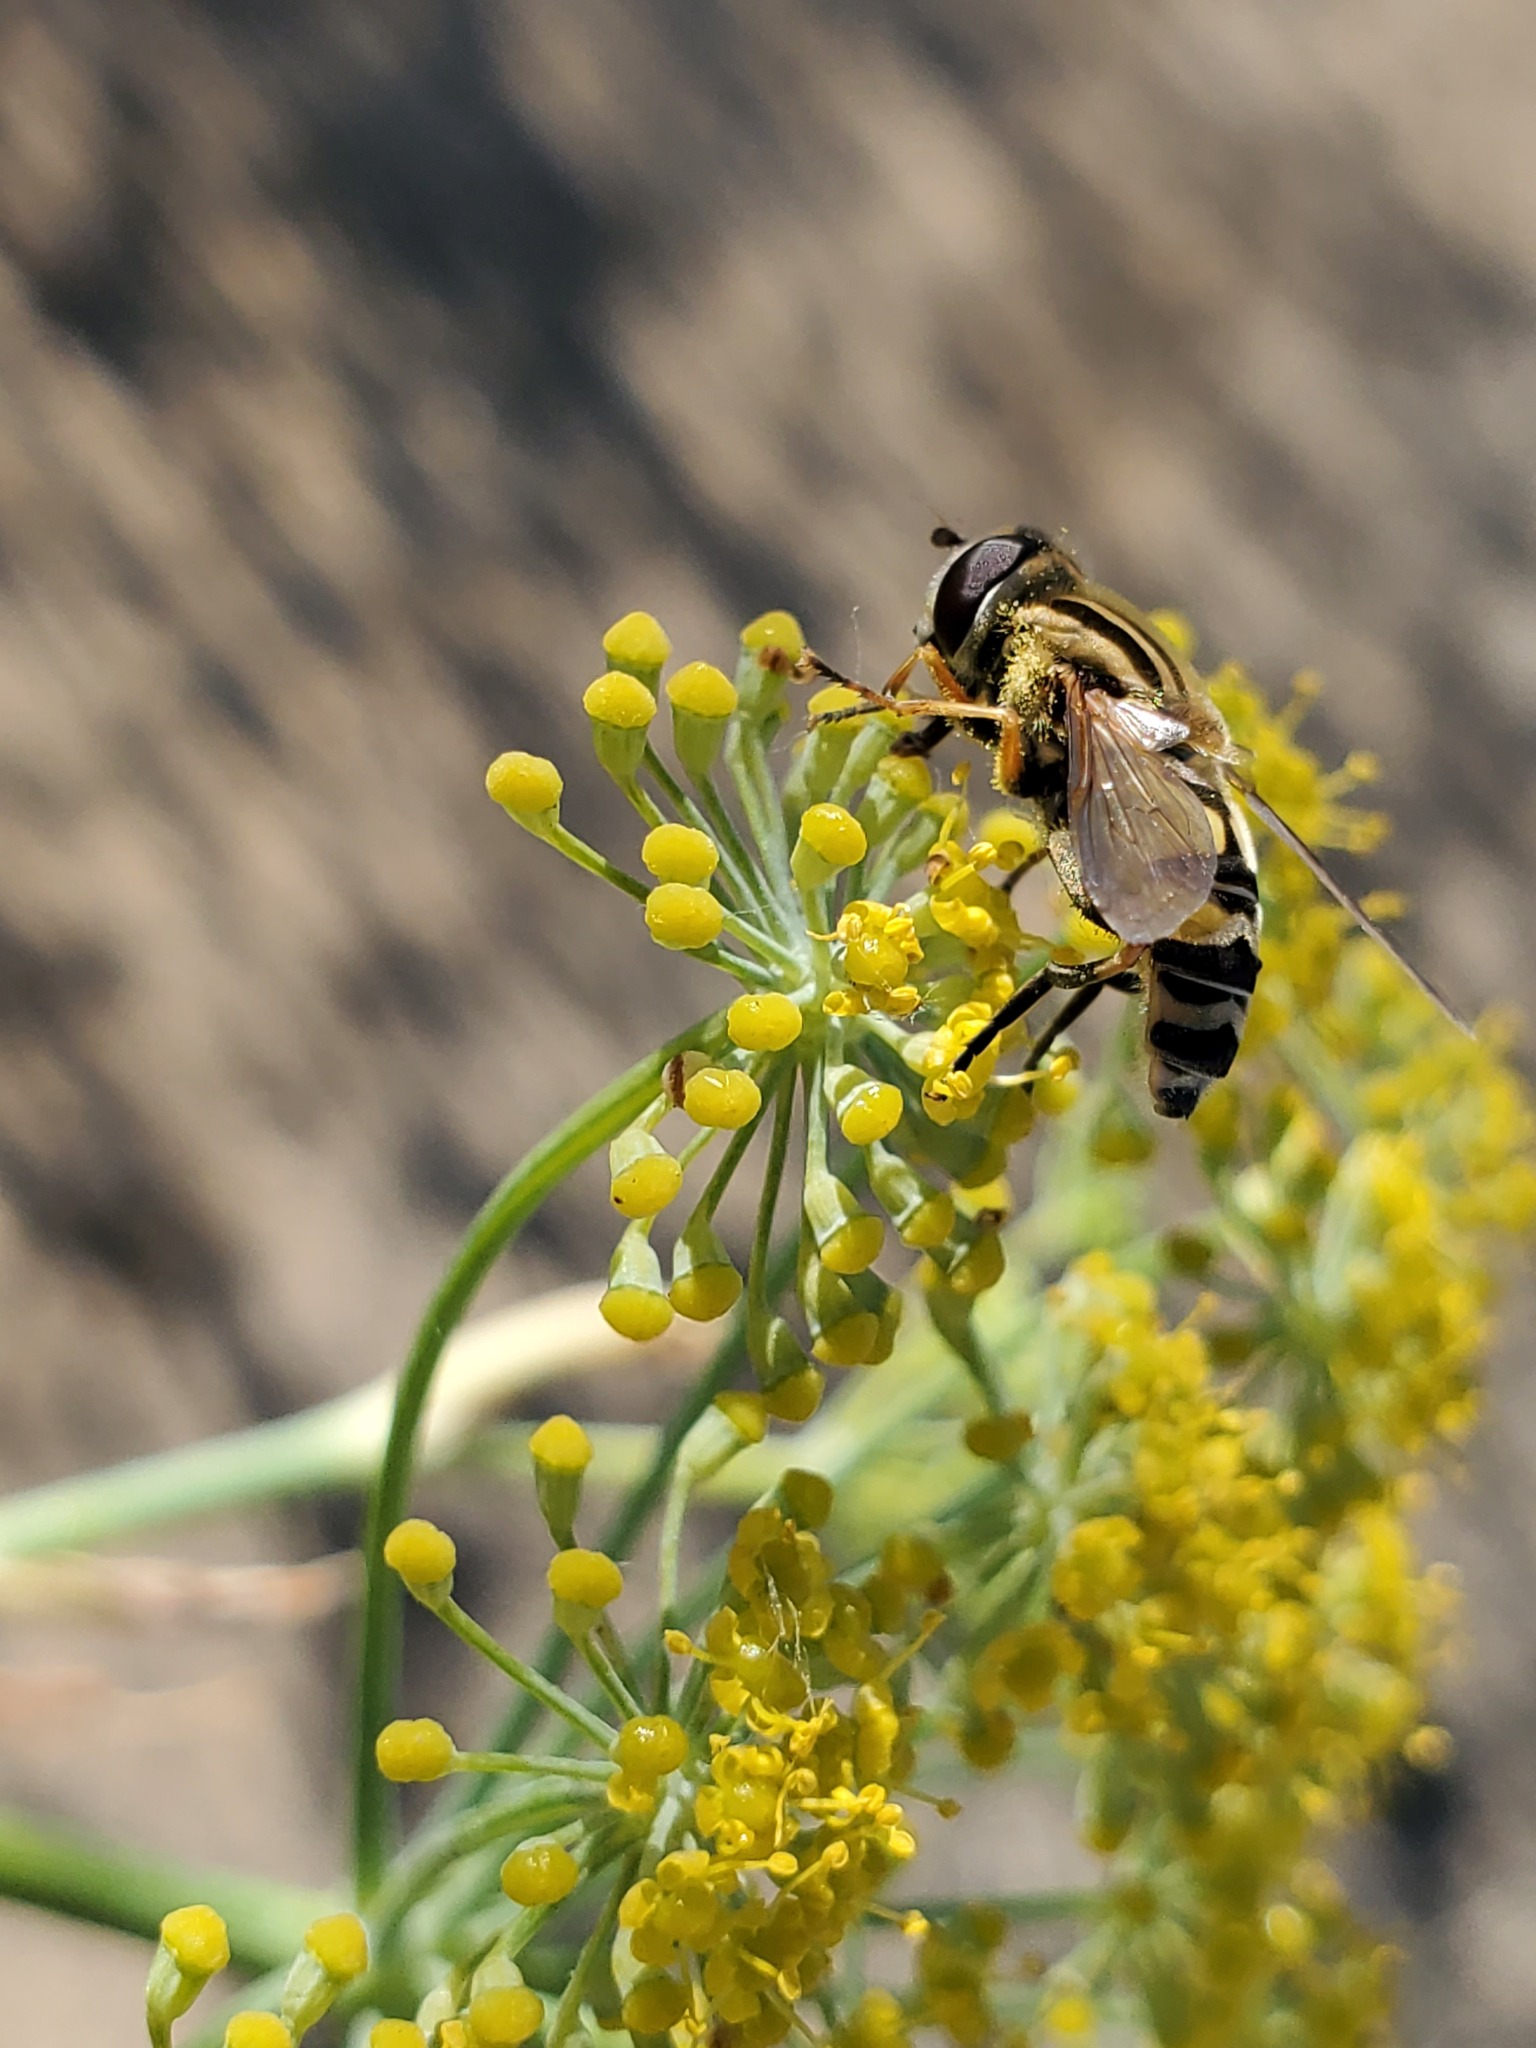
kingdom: Animalia
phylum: Arthropoda
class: Insecta
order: Diptera
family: Syrphidae
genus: Helophilus
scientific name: Helophilus latifrons
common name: Broad-headed marsh fly
